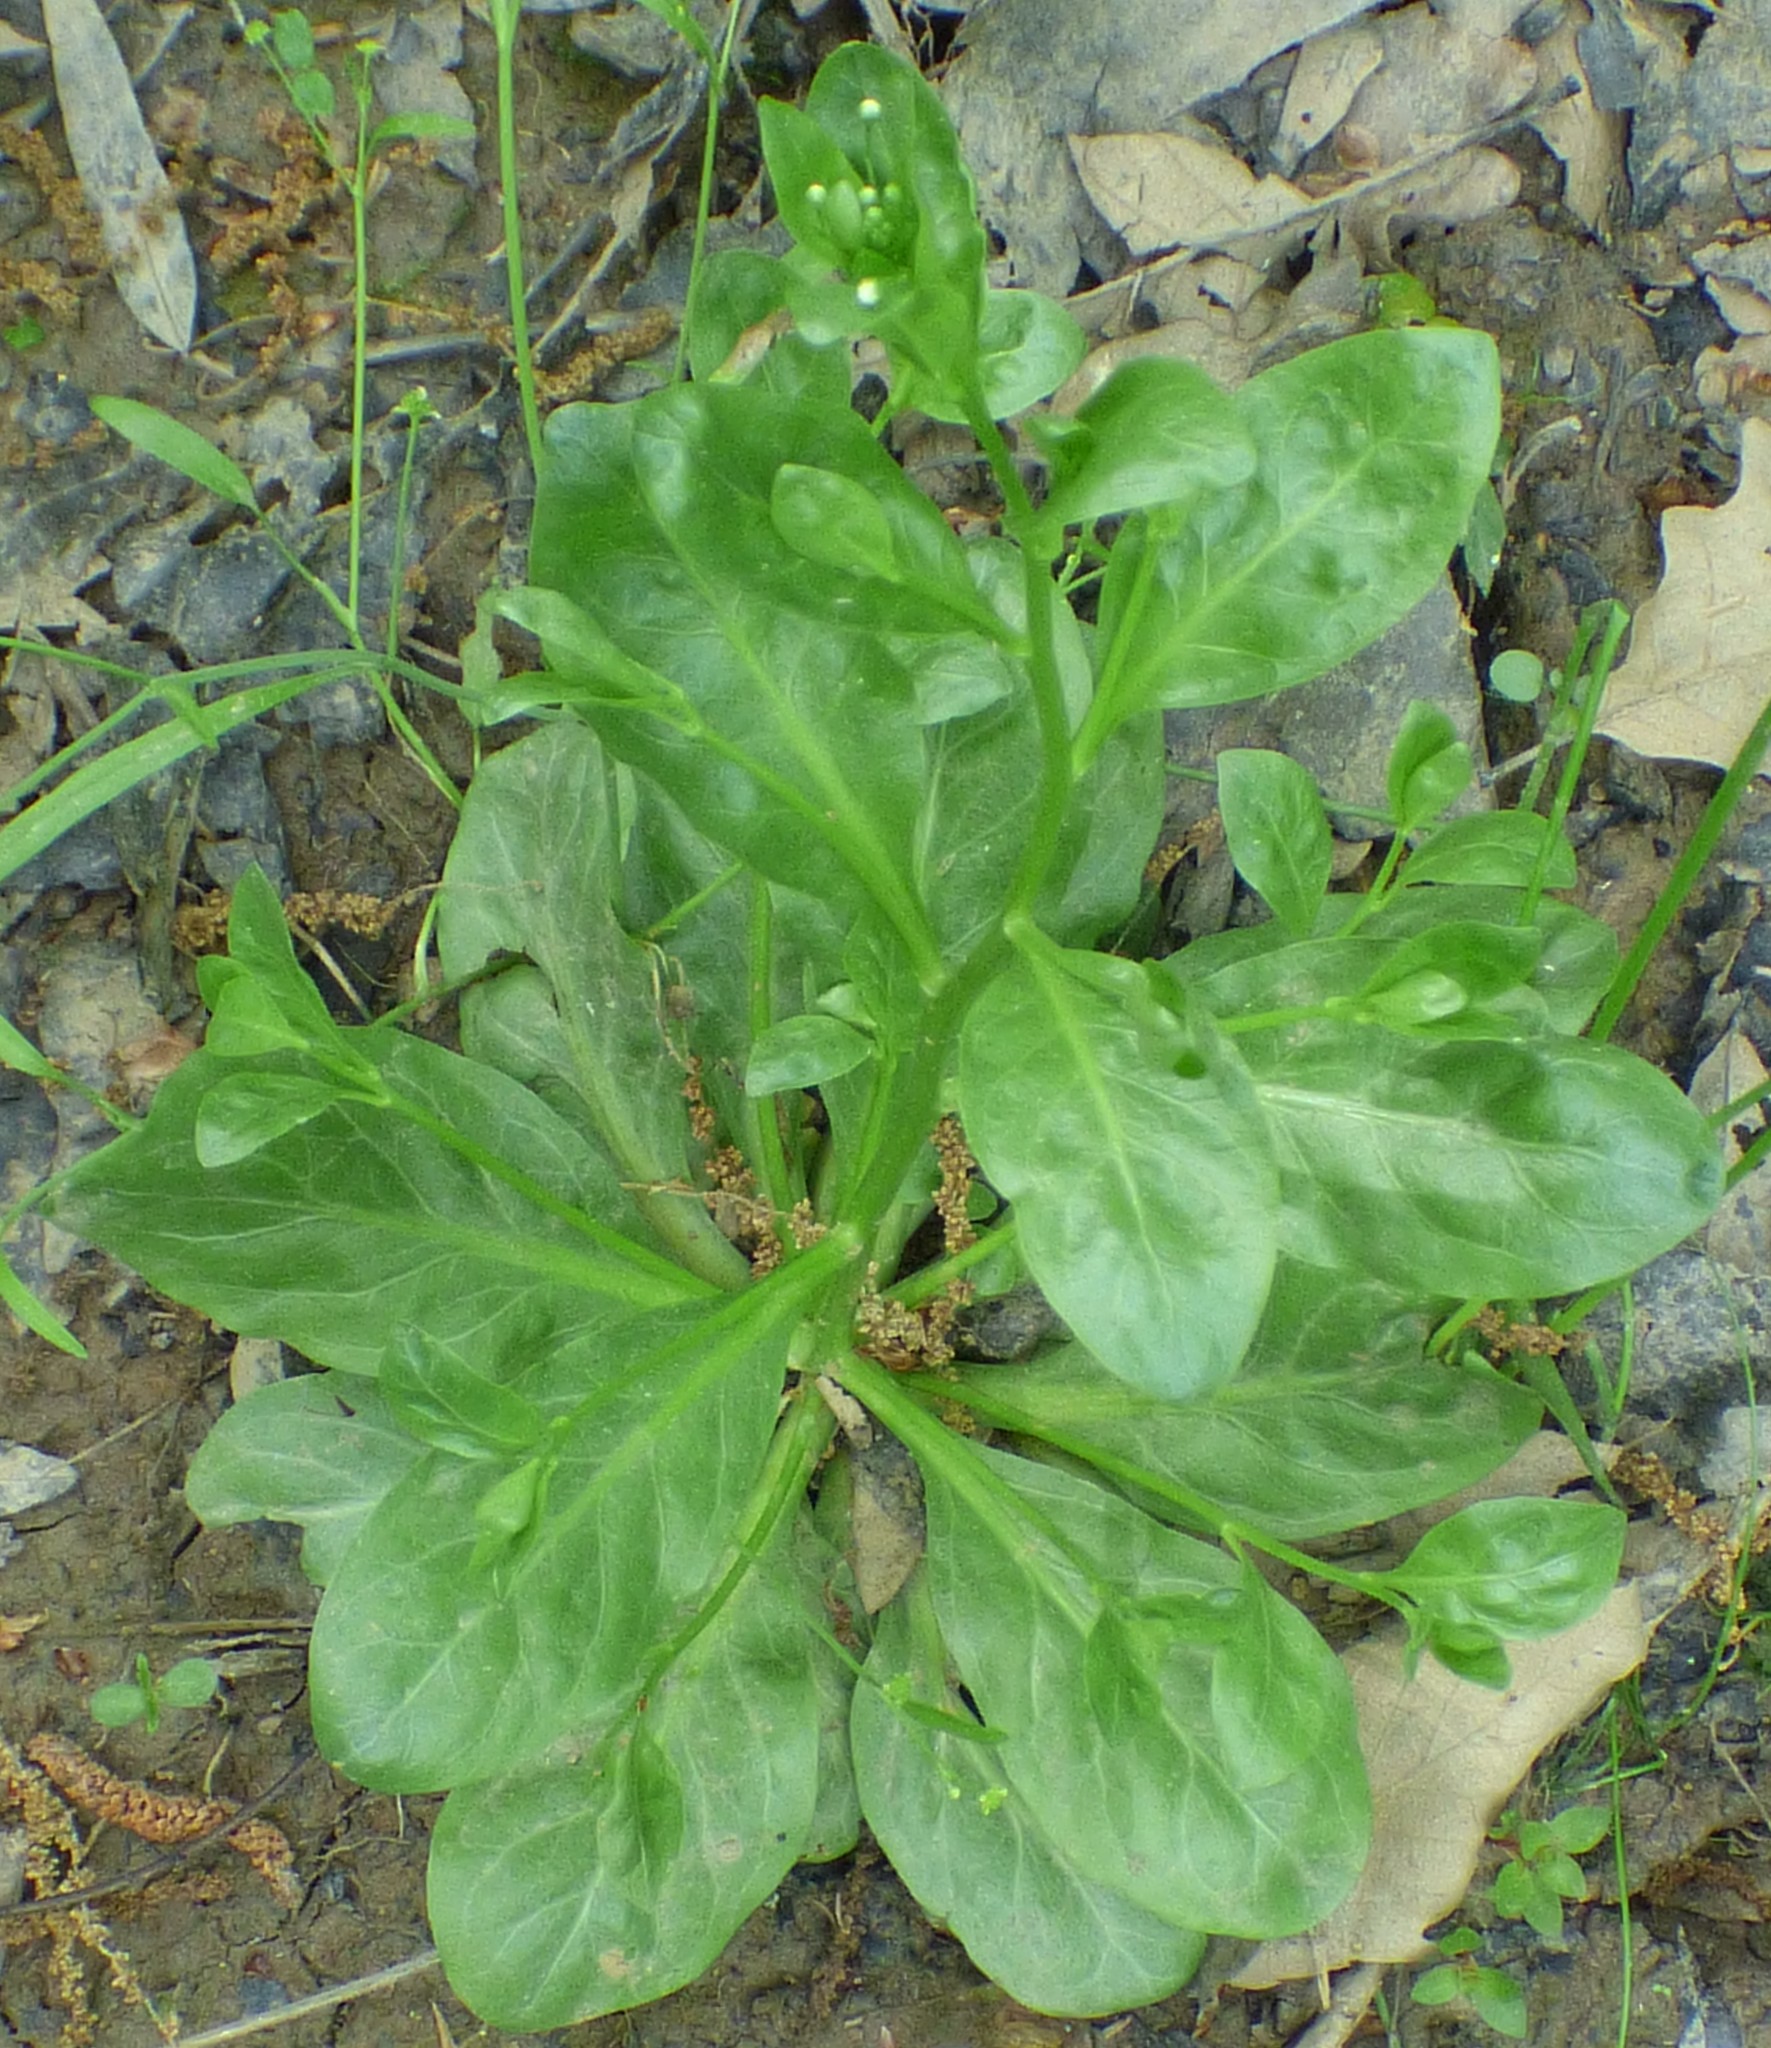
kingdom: Plantae
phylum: Tracheophyta
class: Magnoliopsida
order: Ericales
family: Primulaceae
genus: Samolus
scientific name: Samolus parviflorus
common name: False water pimpernel
